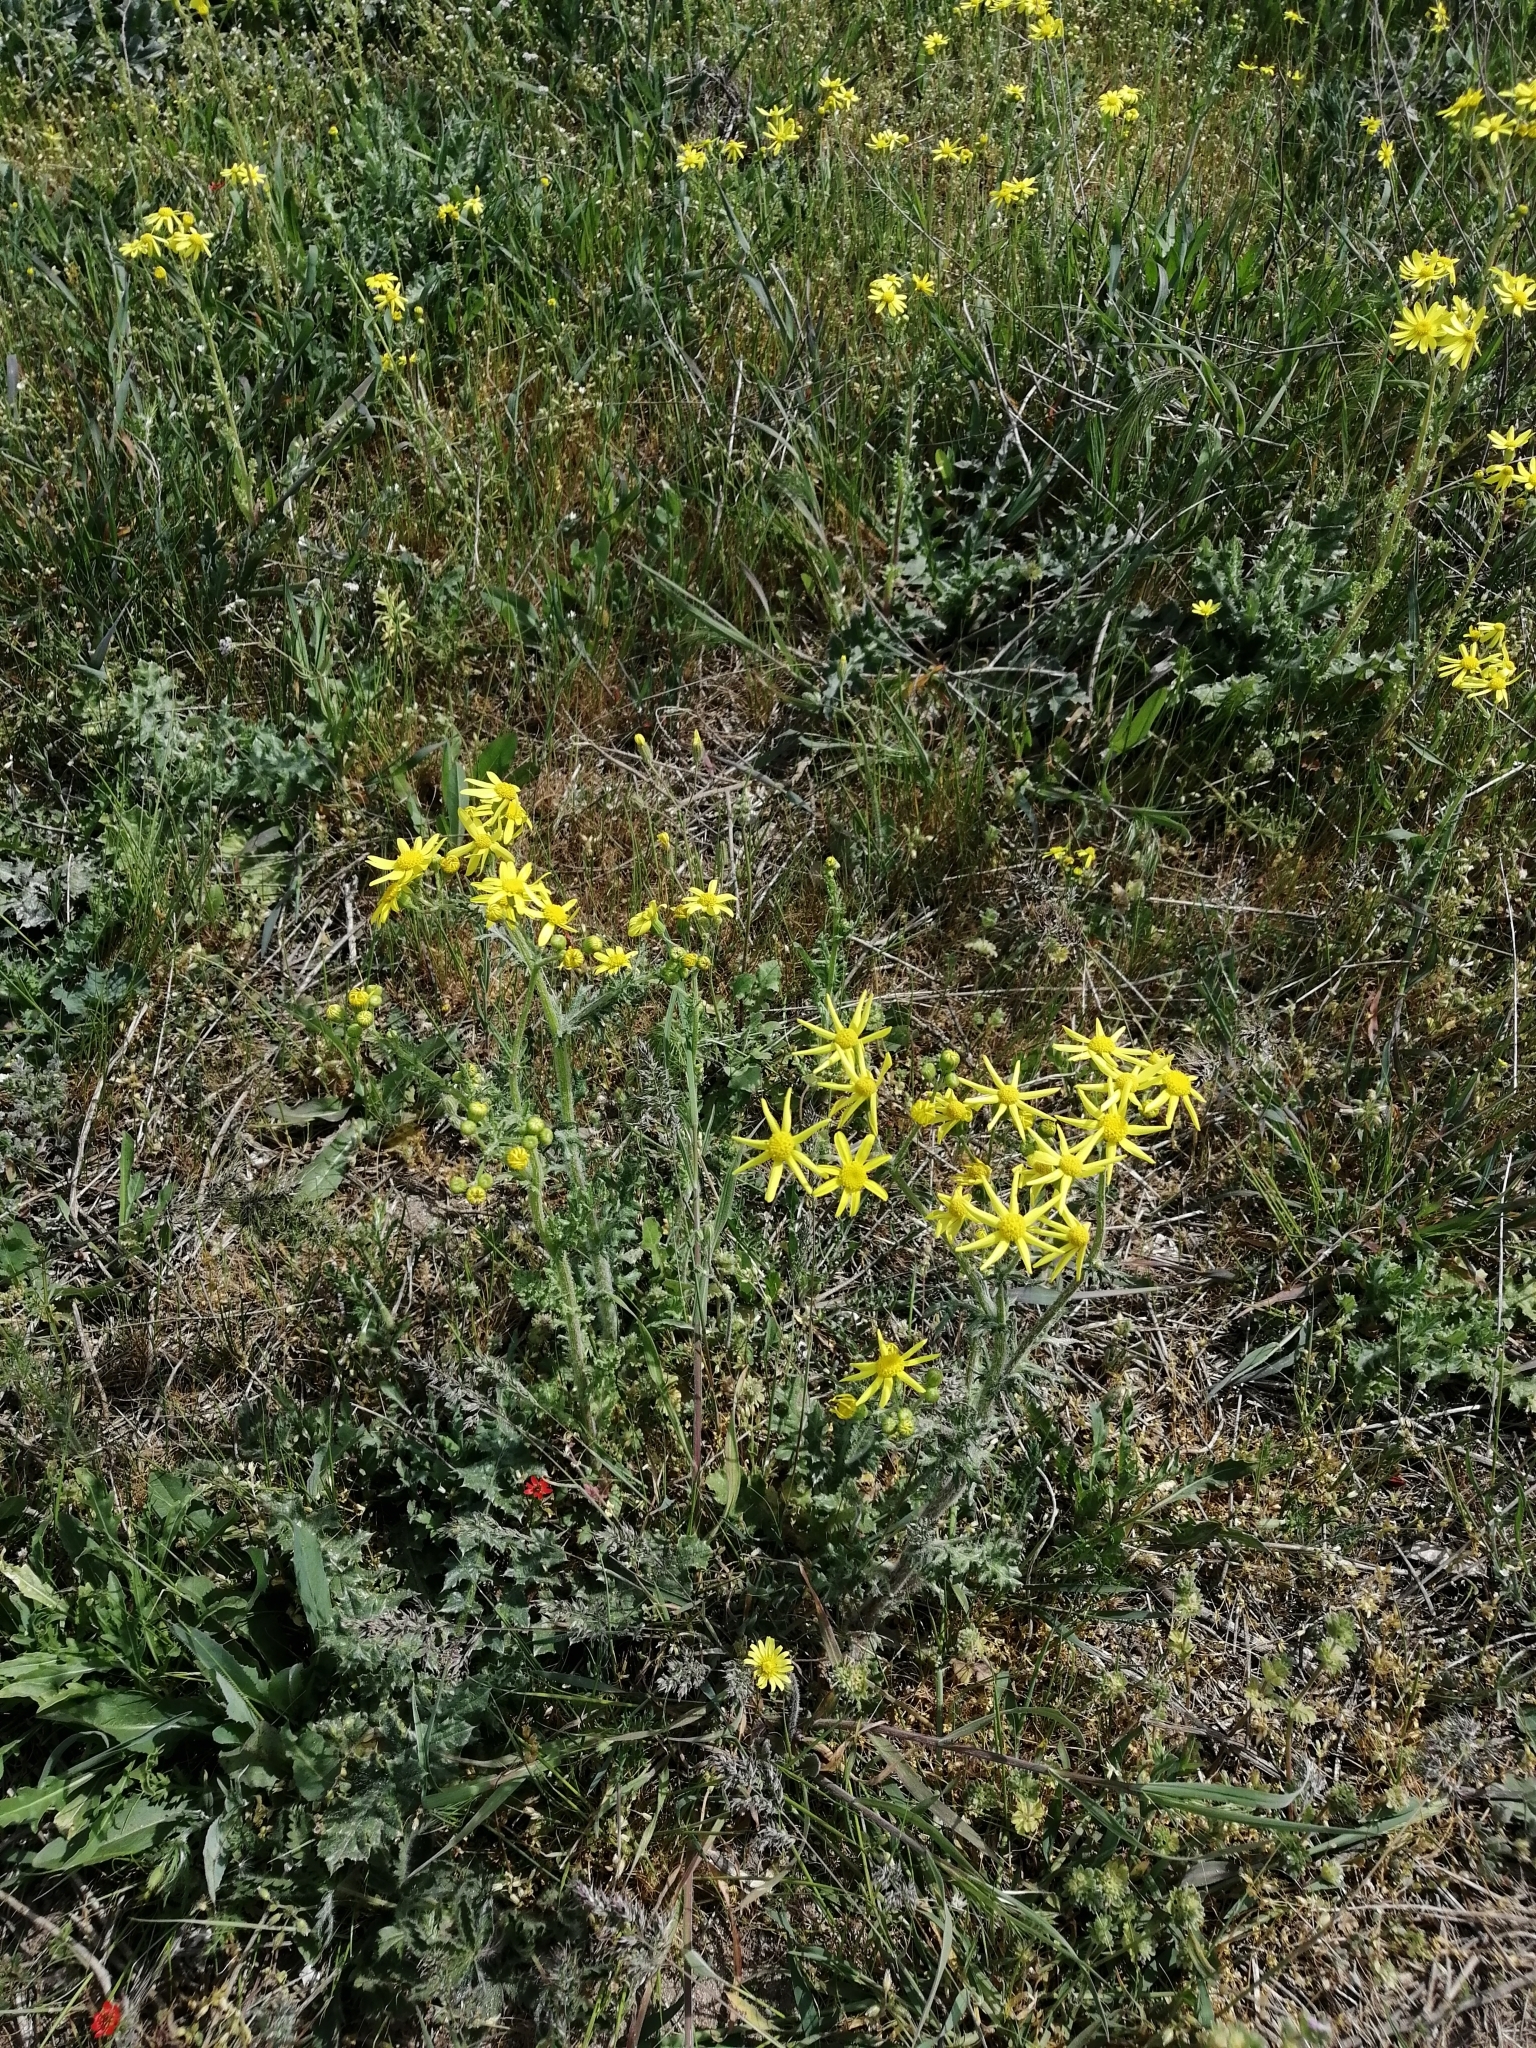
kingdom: Plantae
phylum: Tracheophyta
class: Magnoliopsida
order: Asterales
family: Asteraceae
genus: Senecio
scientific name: Senecio vernalis
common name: Eastern groundsel
